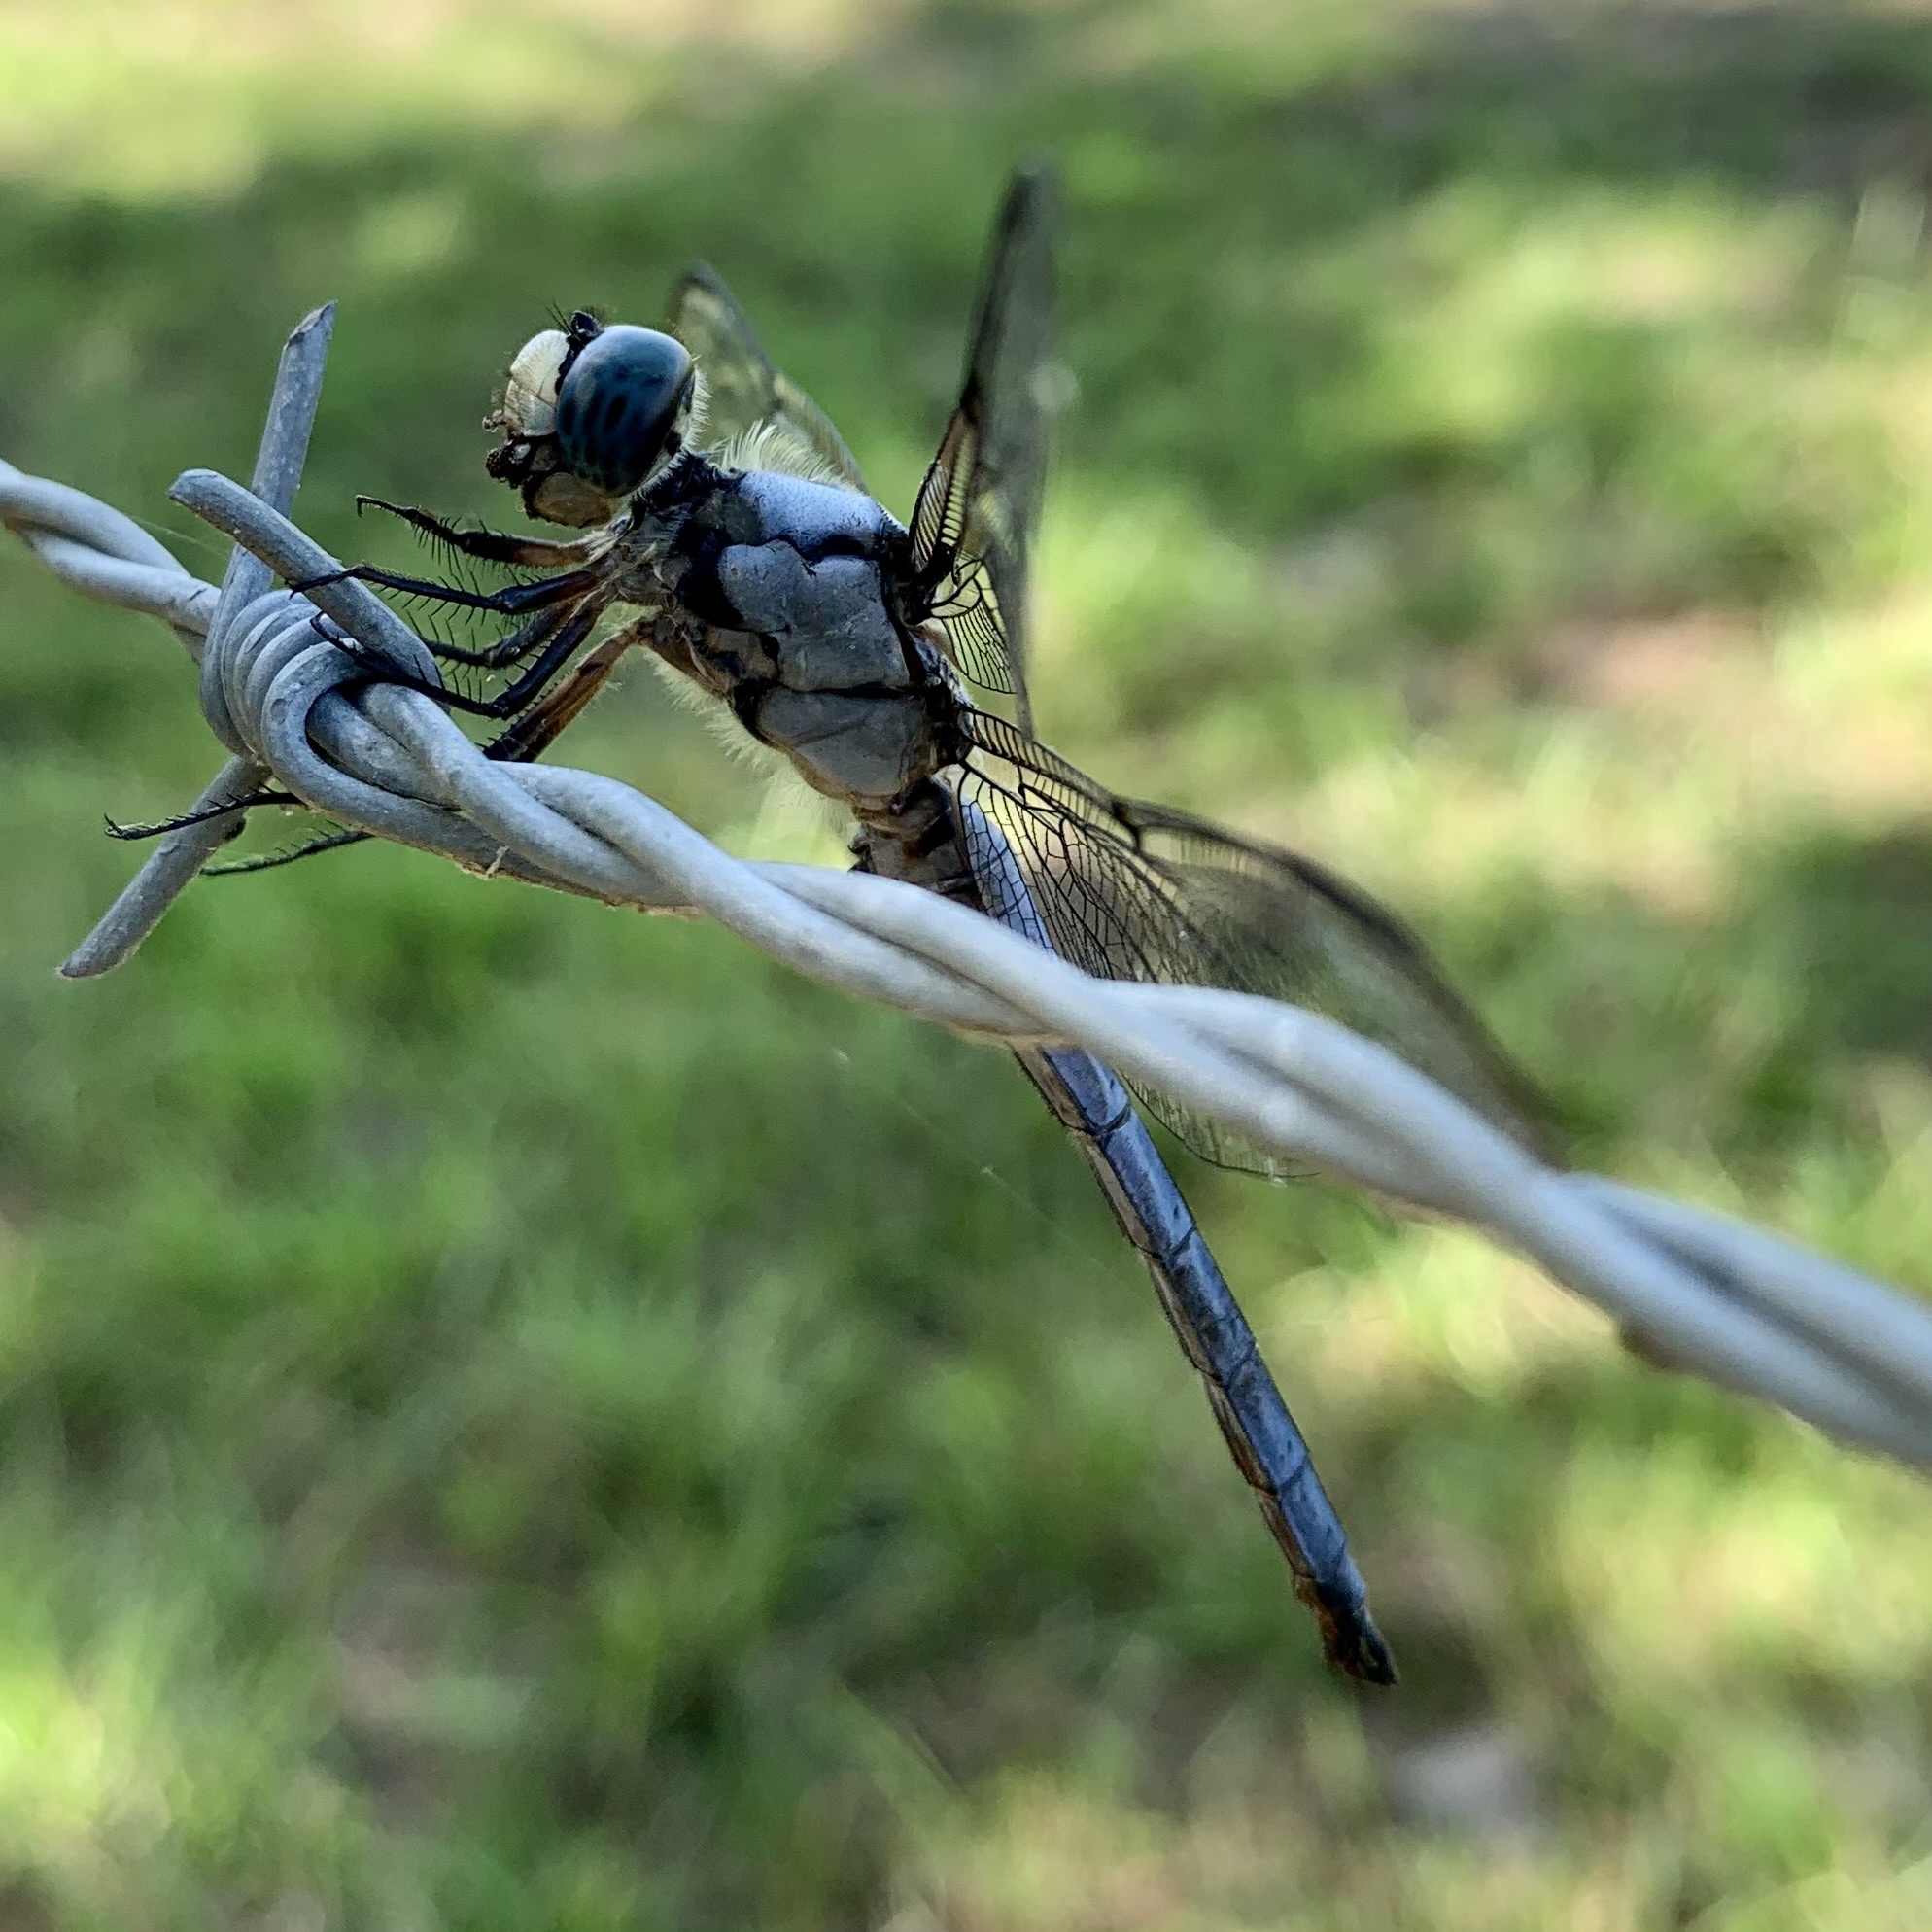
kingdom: Animalia
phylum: Arthropoda
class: Insecta
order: Odonata
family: Libellulidae
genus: Libellula
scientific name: Libellula vibrans
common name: Great blue skimmer
